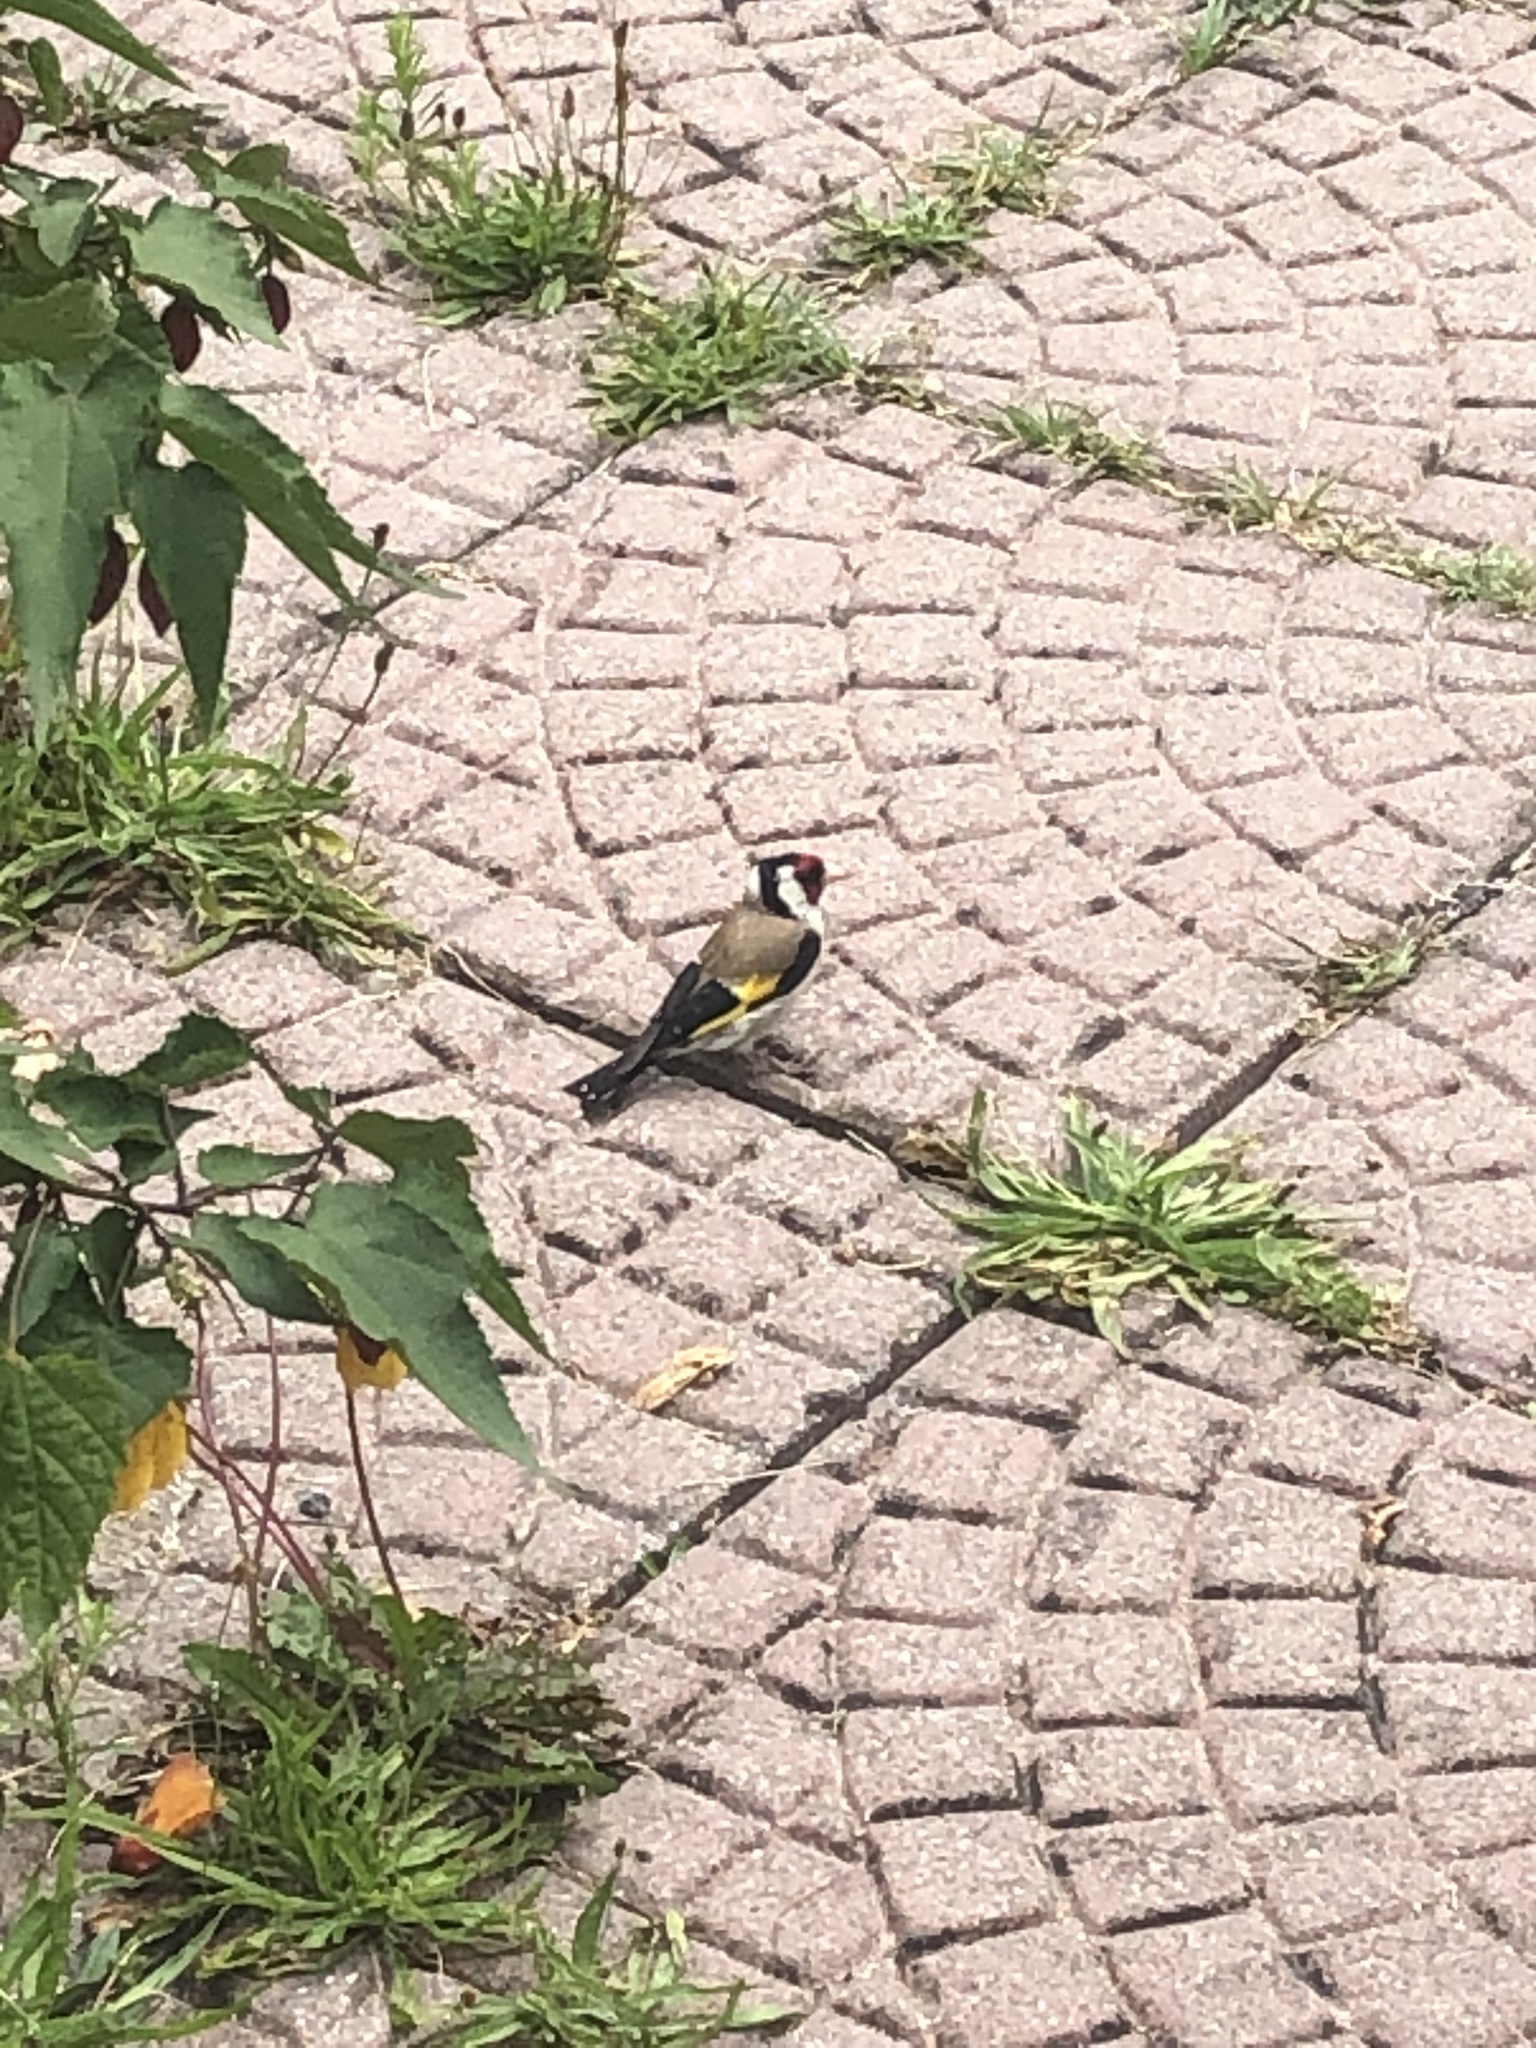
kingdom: Animalia
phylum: Chordata
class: Aves
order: Passeriformes
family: Fringillidae
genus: Carduelis
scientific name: Carduelis carduelis
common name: European goldfinch
